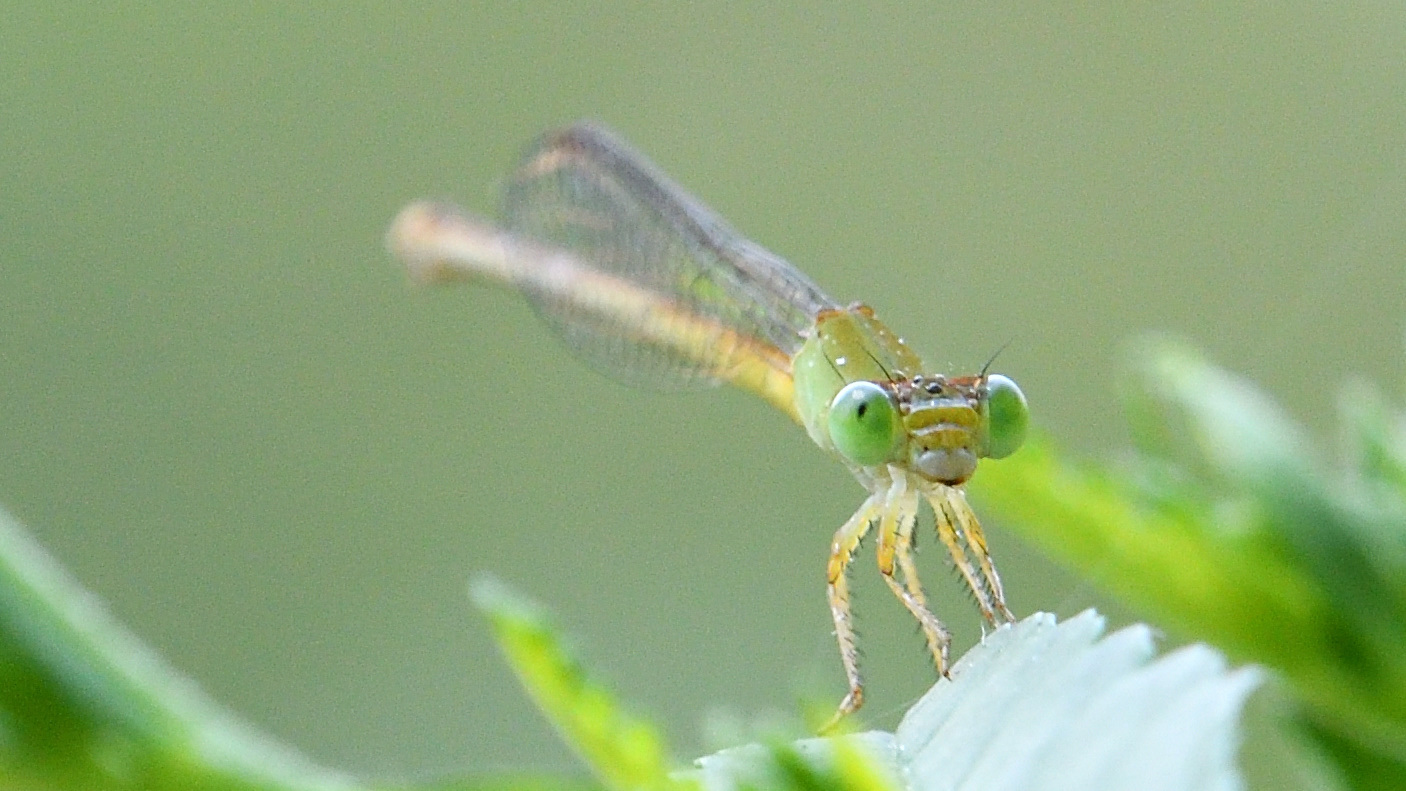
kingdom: Animalia
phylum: Arthropoda
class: Insecta
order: Odonata
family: Coenagrionidae
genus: Ceriagrion
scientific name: Ceriagrion coromandelianum
